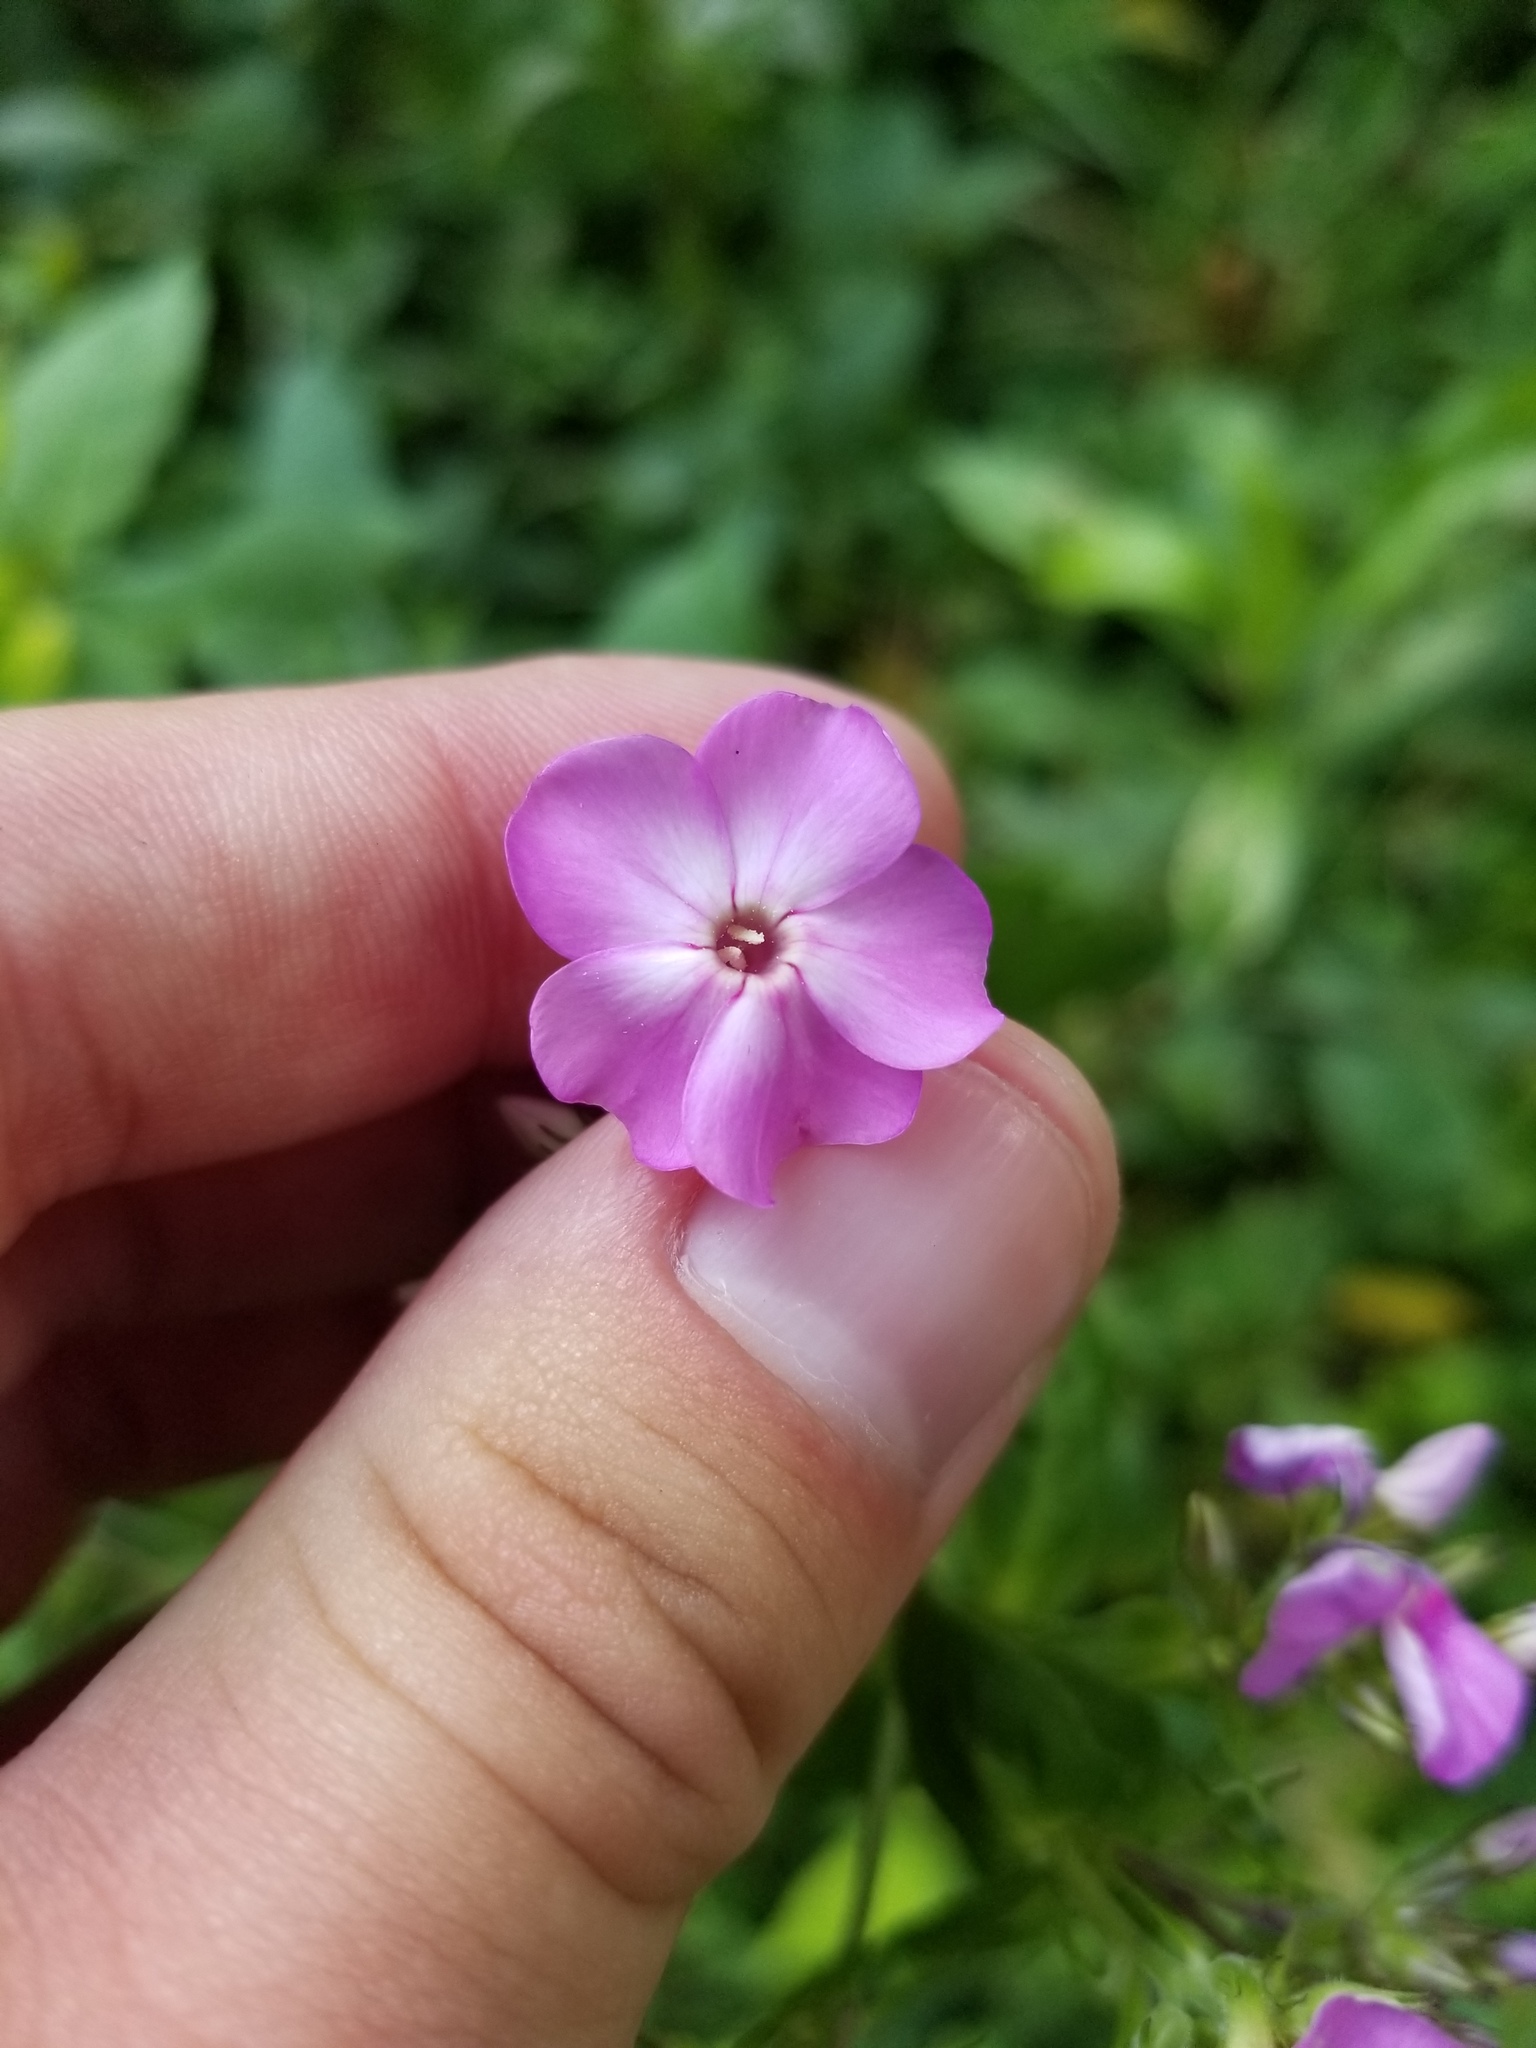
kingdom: Plantae
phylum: Tracheophyta
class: Magnoliopsida
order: Ericales
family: Polemoniaceae
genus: Phlox
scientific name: Phlox paniculata
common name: Fall phlox
